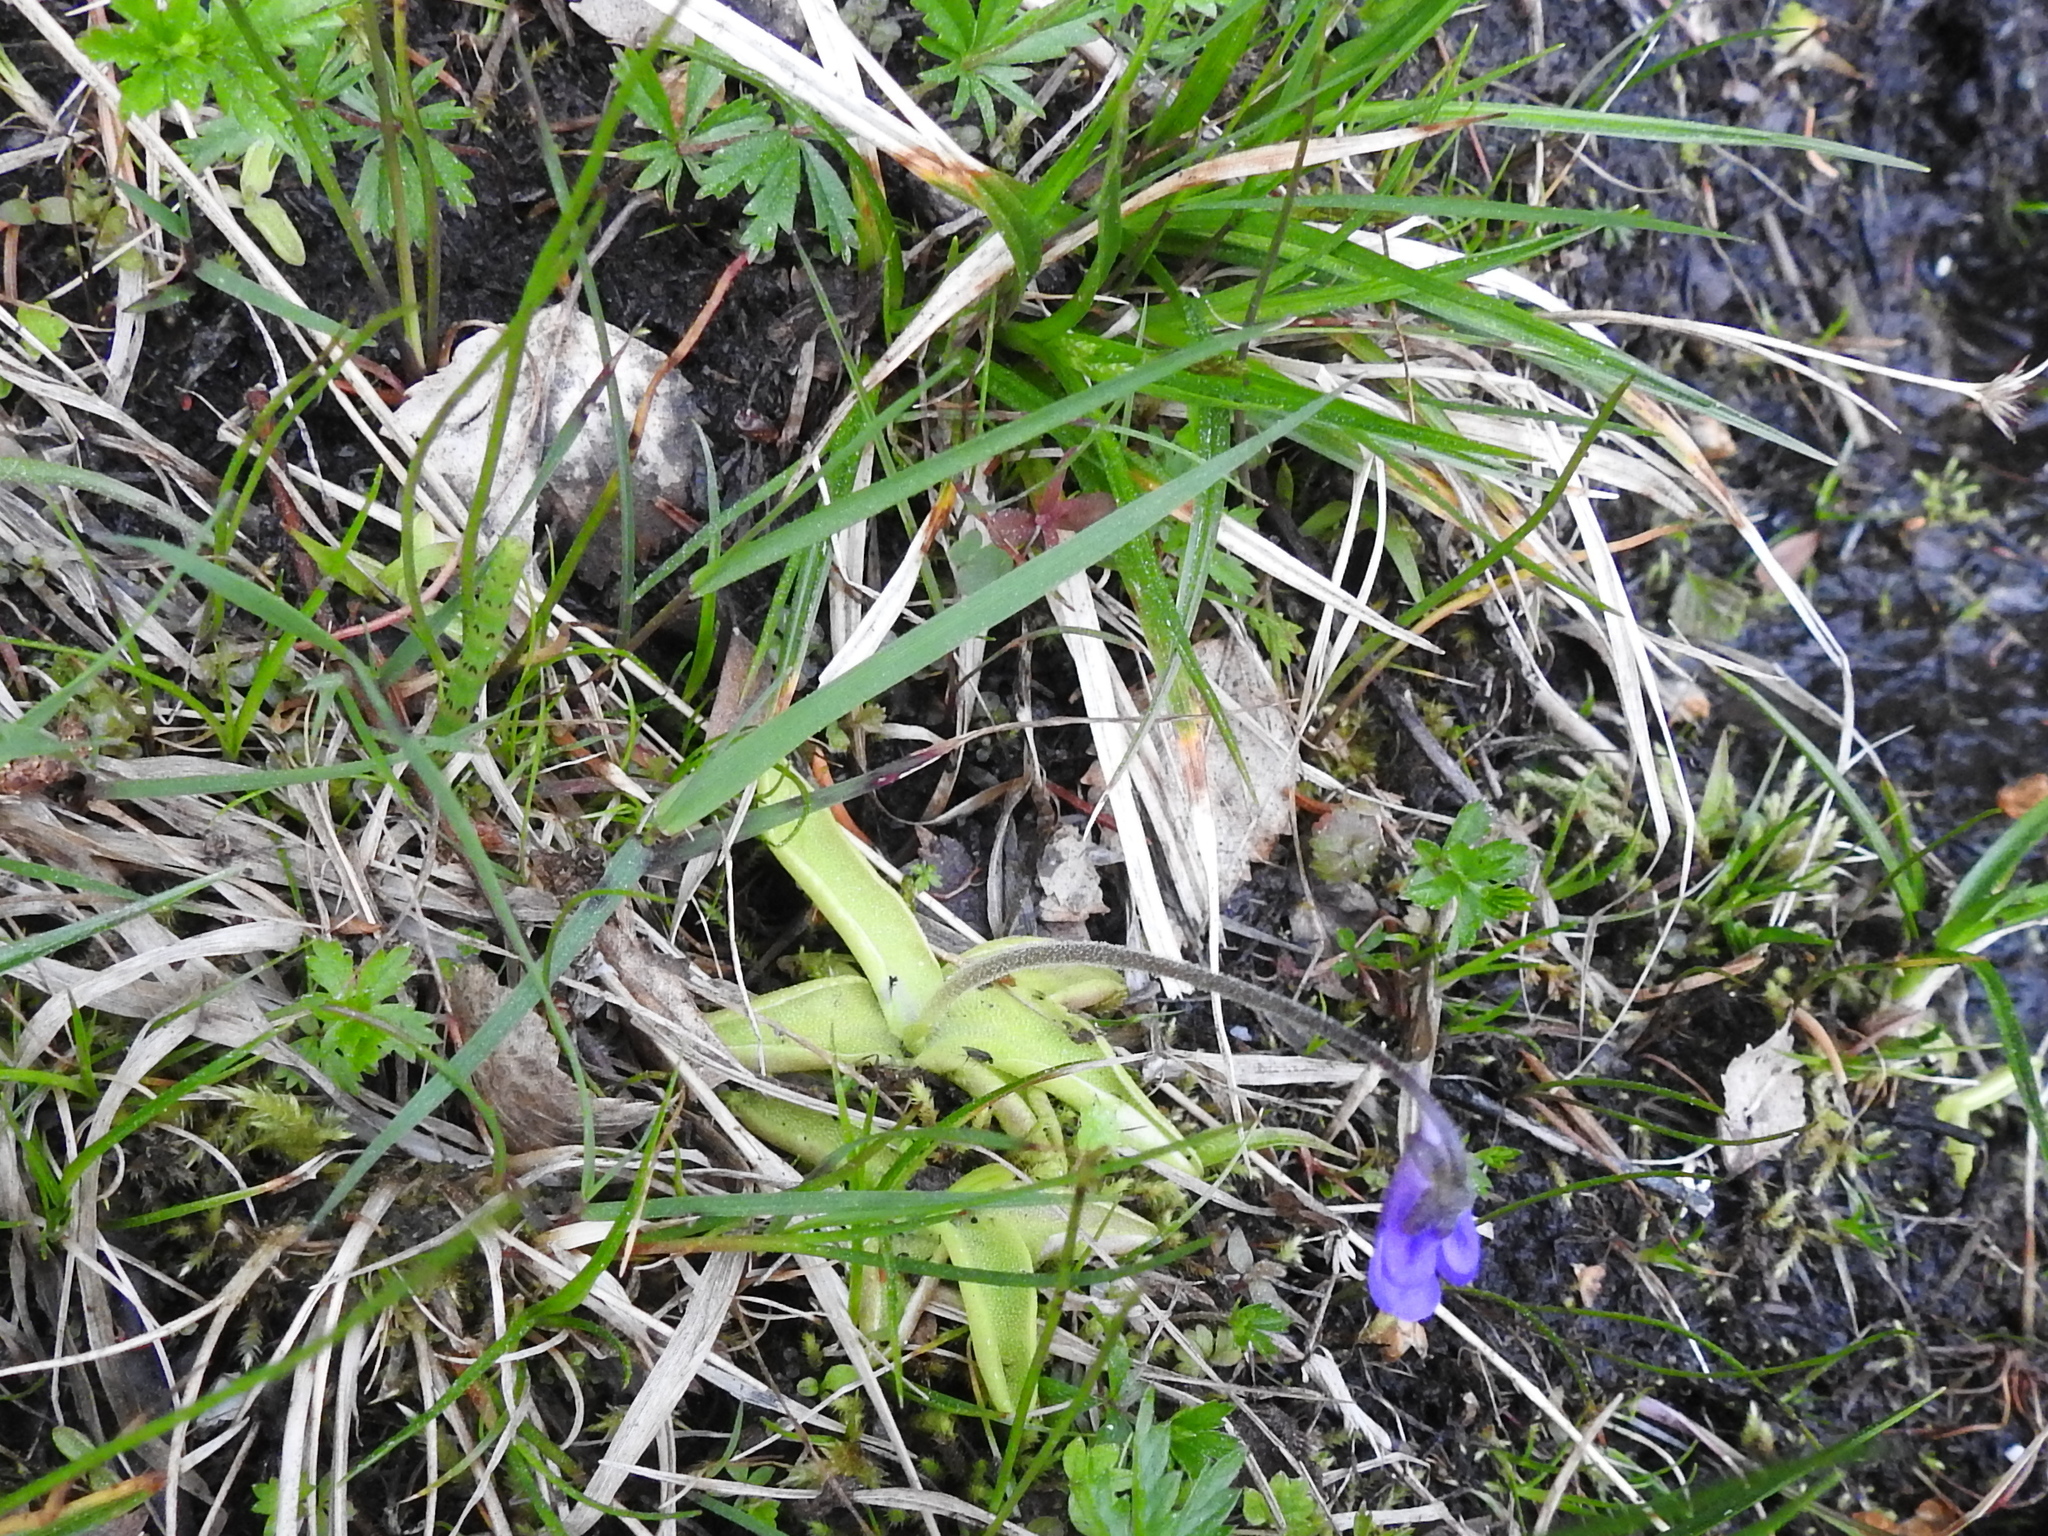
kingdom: Plantae
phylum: Tracheophyta
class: Magnoliopsida
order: Lamiales
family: Lentibulariaceae
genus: Pinguicula
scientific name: Pinguicula vulgaris
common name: Common butterwort
